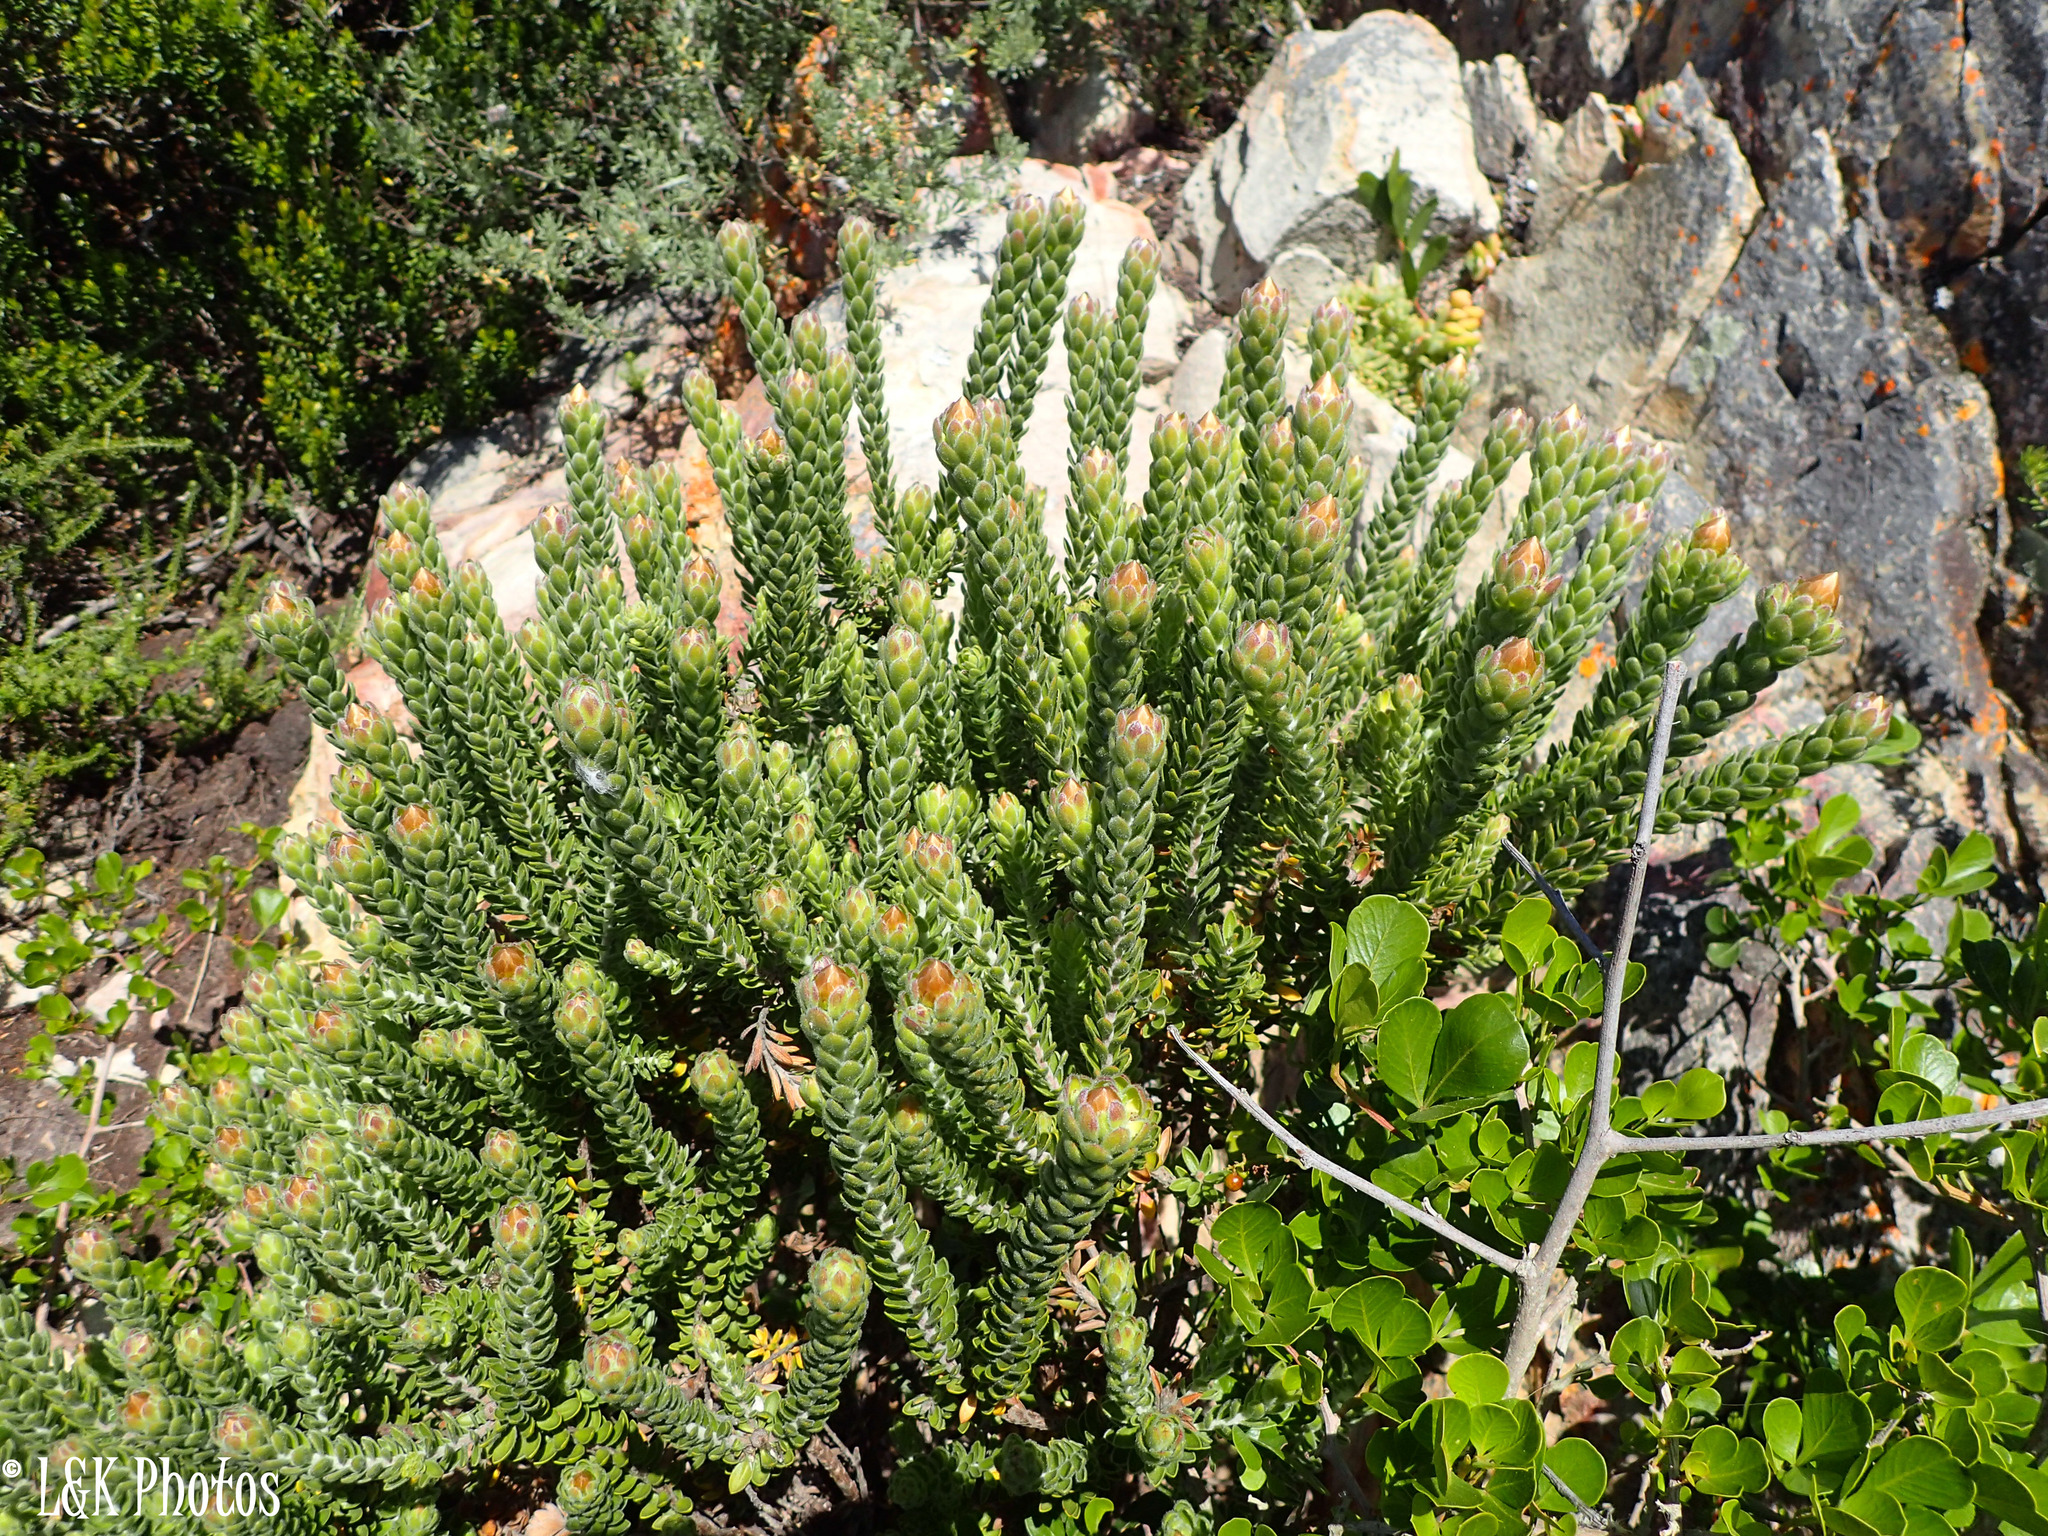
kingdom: Plantae
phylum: Tracheophyta
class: Magnoliopsida
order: Asterales
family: Asteraceae
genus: Oedera
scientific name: Oedera calycina
